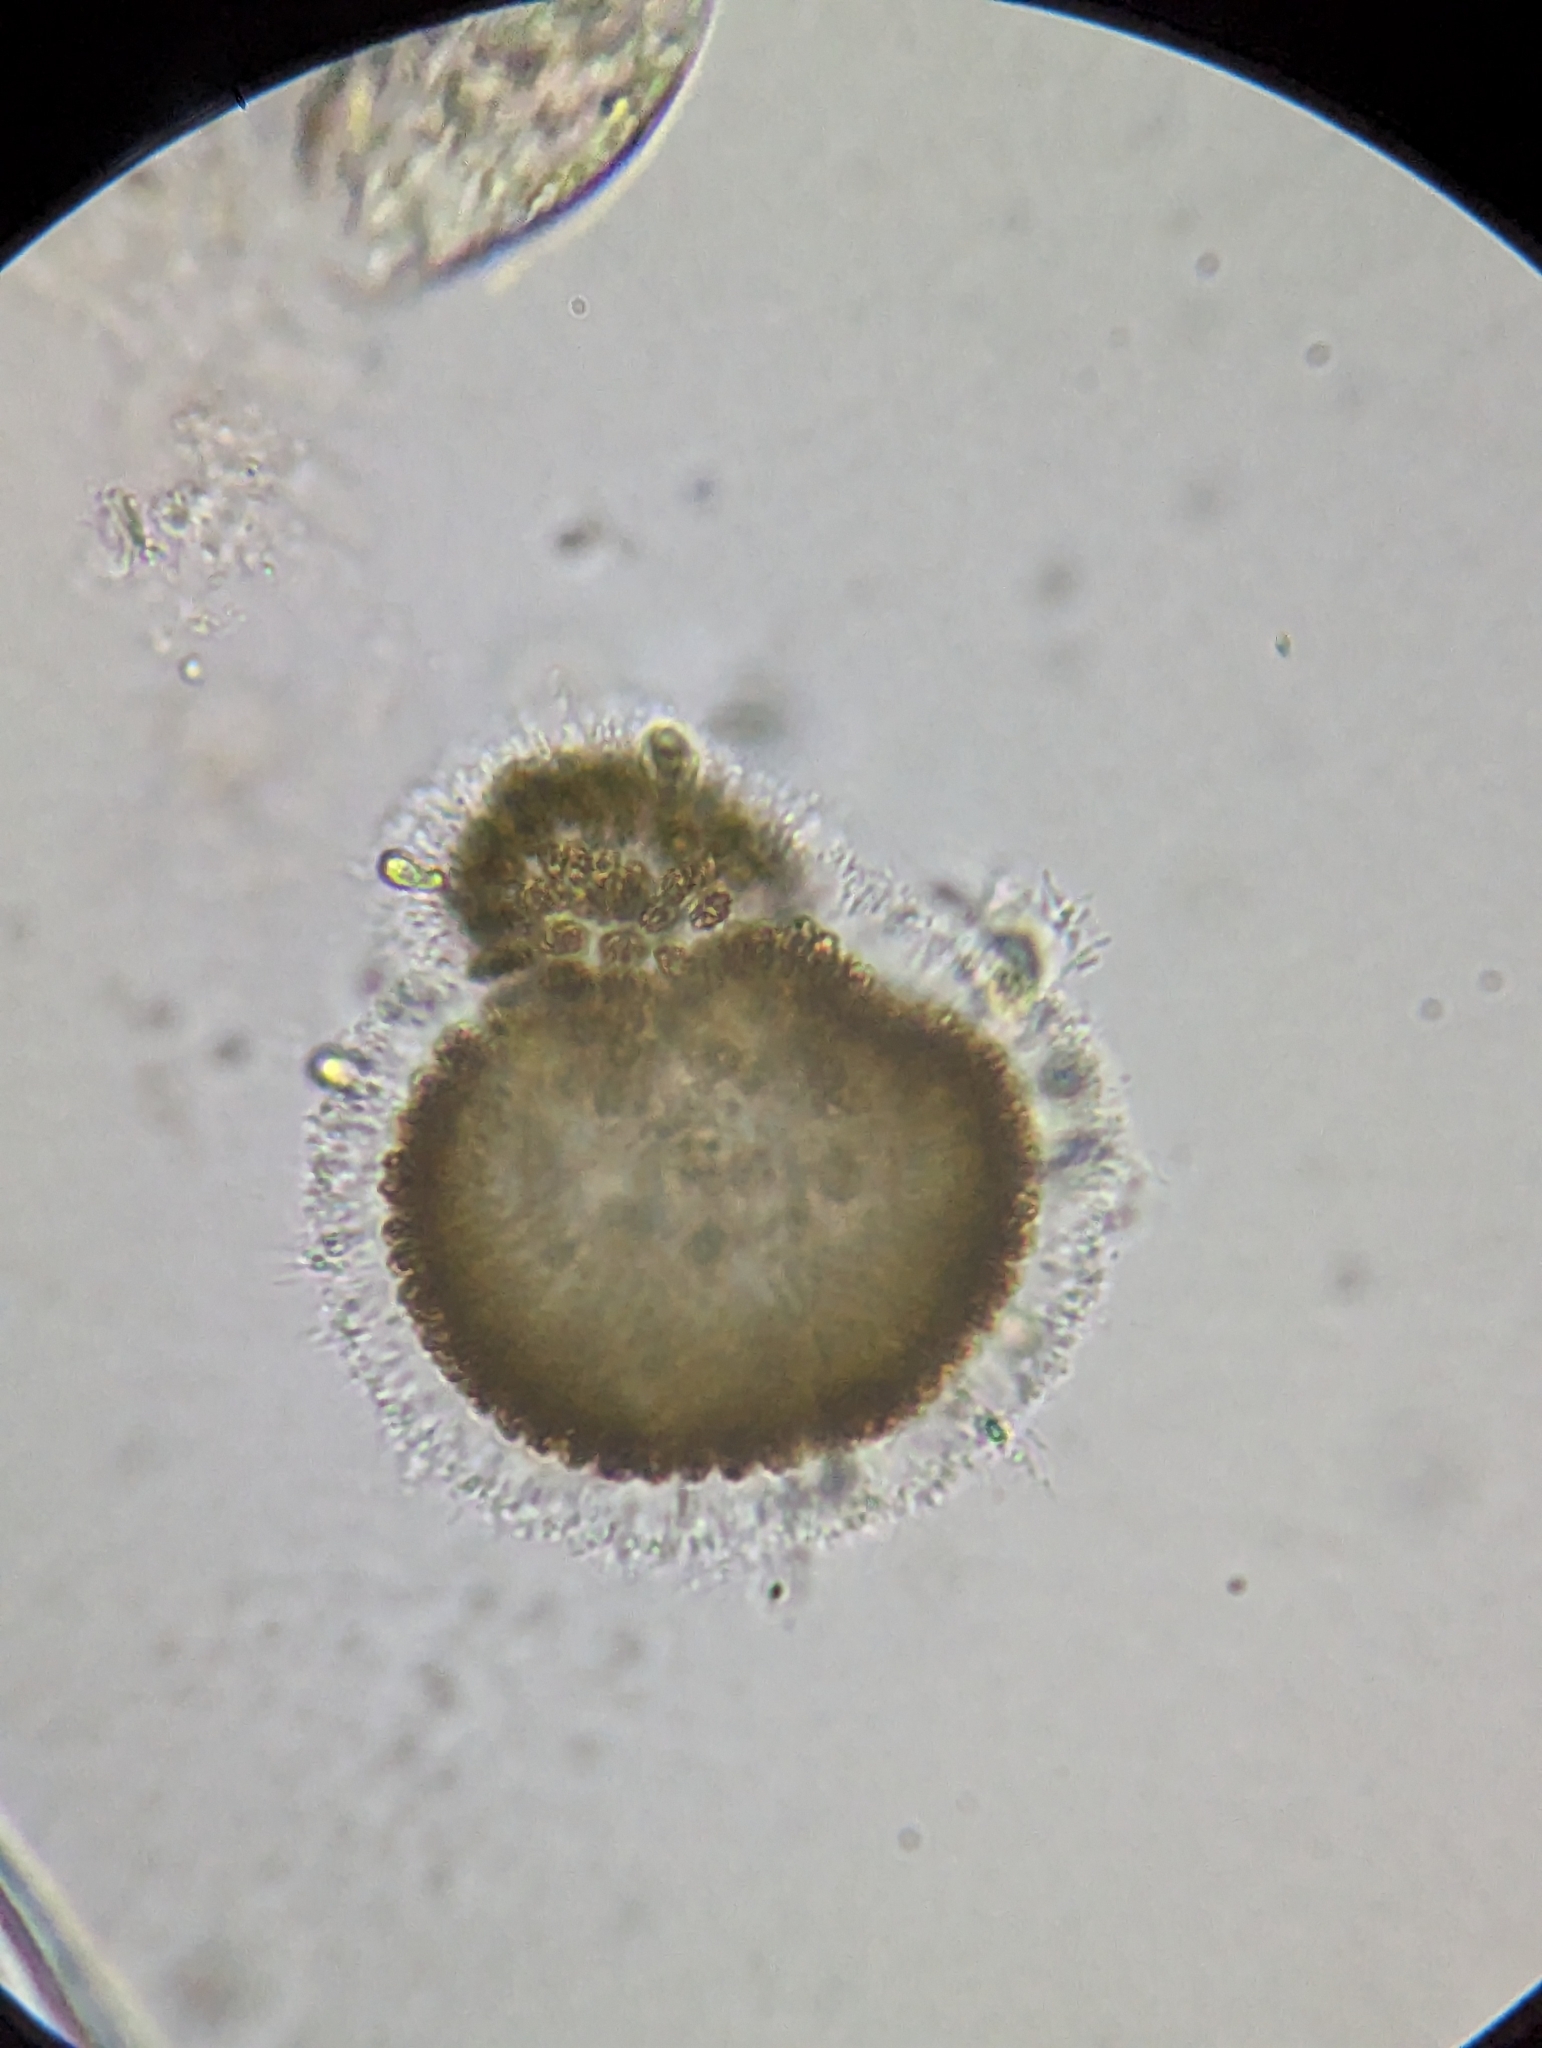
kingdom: Bacteria
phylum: Cyanobacteria
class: Cyanobacteriia
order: Synechococcales
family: Coelosphaeriaceae
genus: Woronichinia
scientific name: Woronichinia naegeliana
